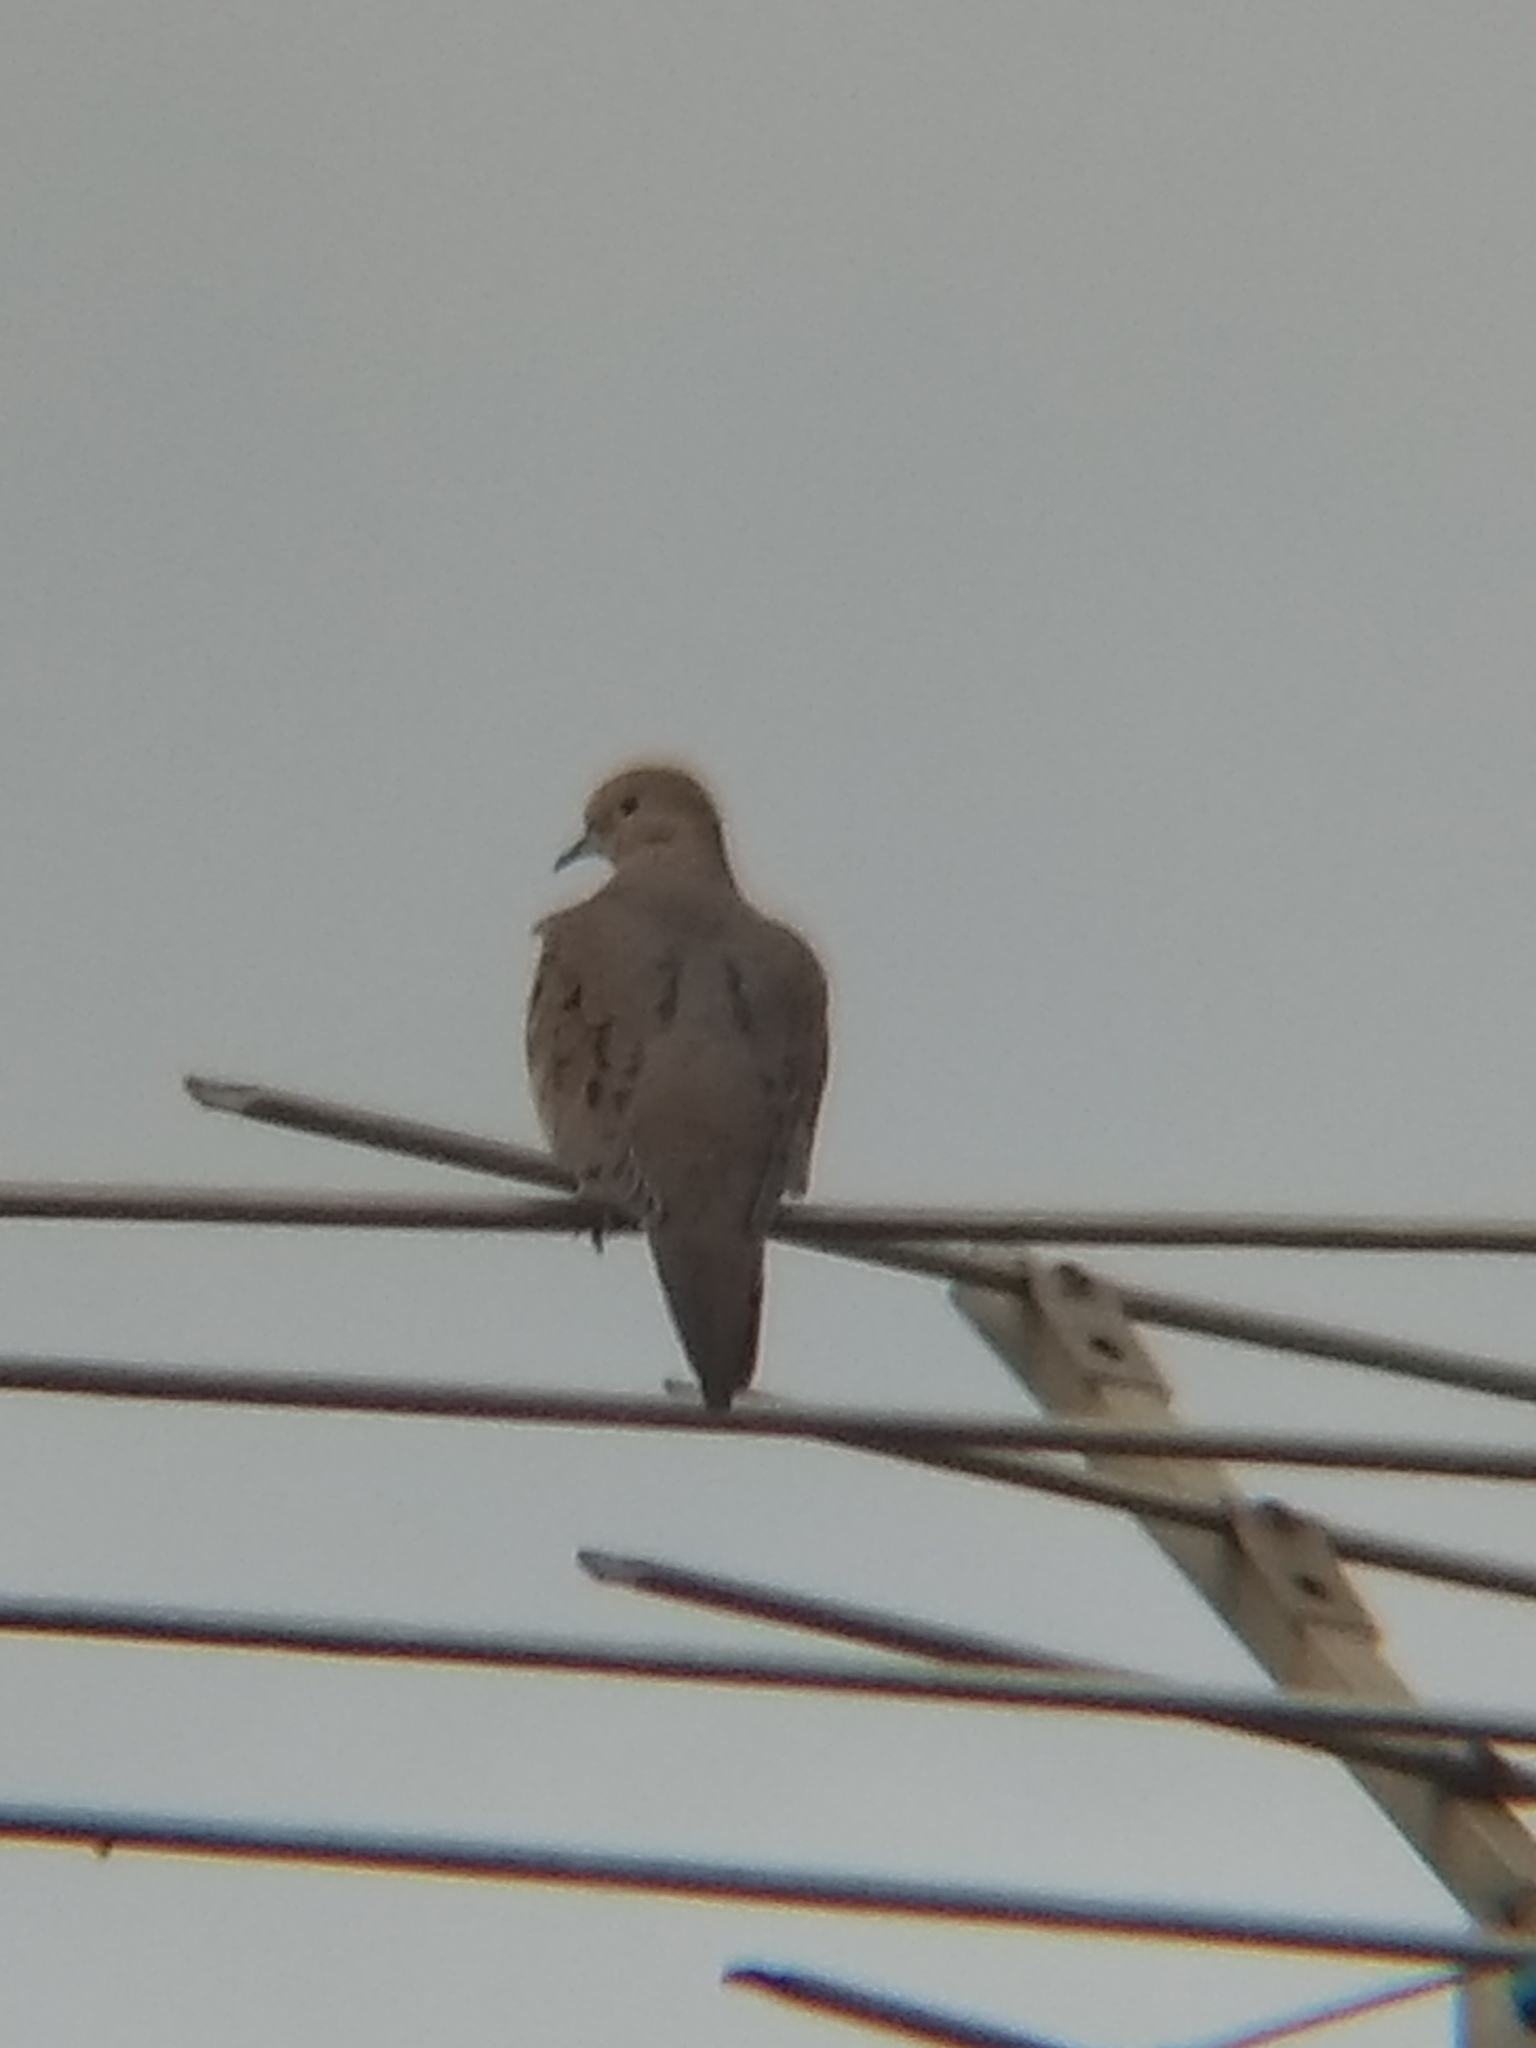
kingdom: Animalia
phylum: Chordata
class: Aves
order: Columbiformes
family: Columbidae
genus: Zenaida
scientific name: Zenaida macroura
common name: Mourning dove
